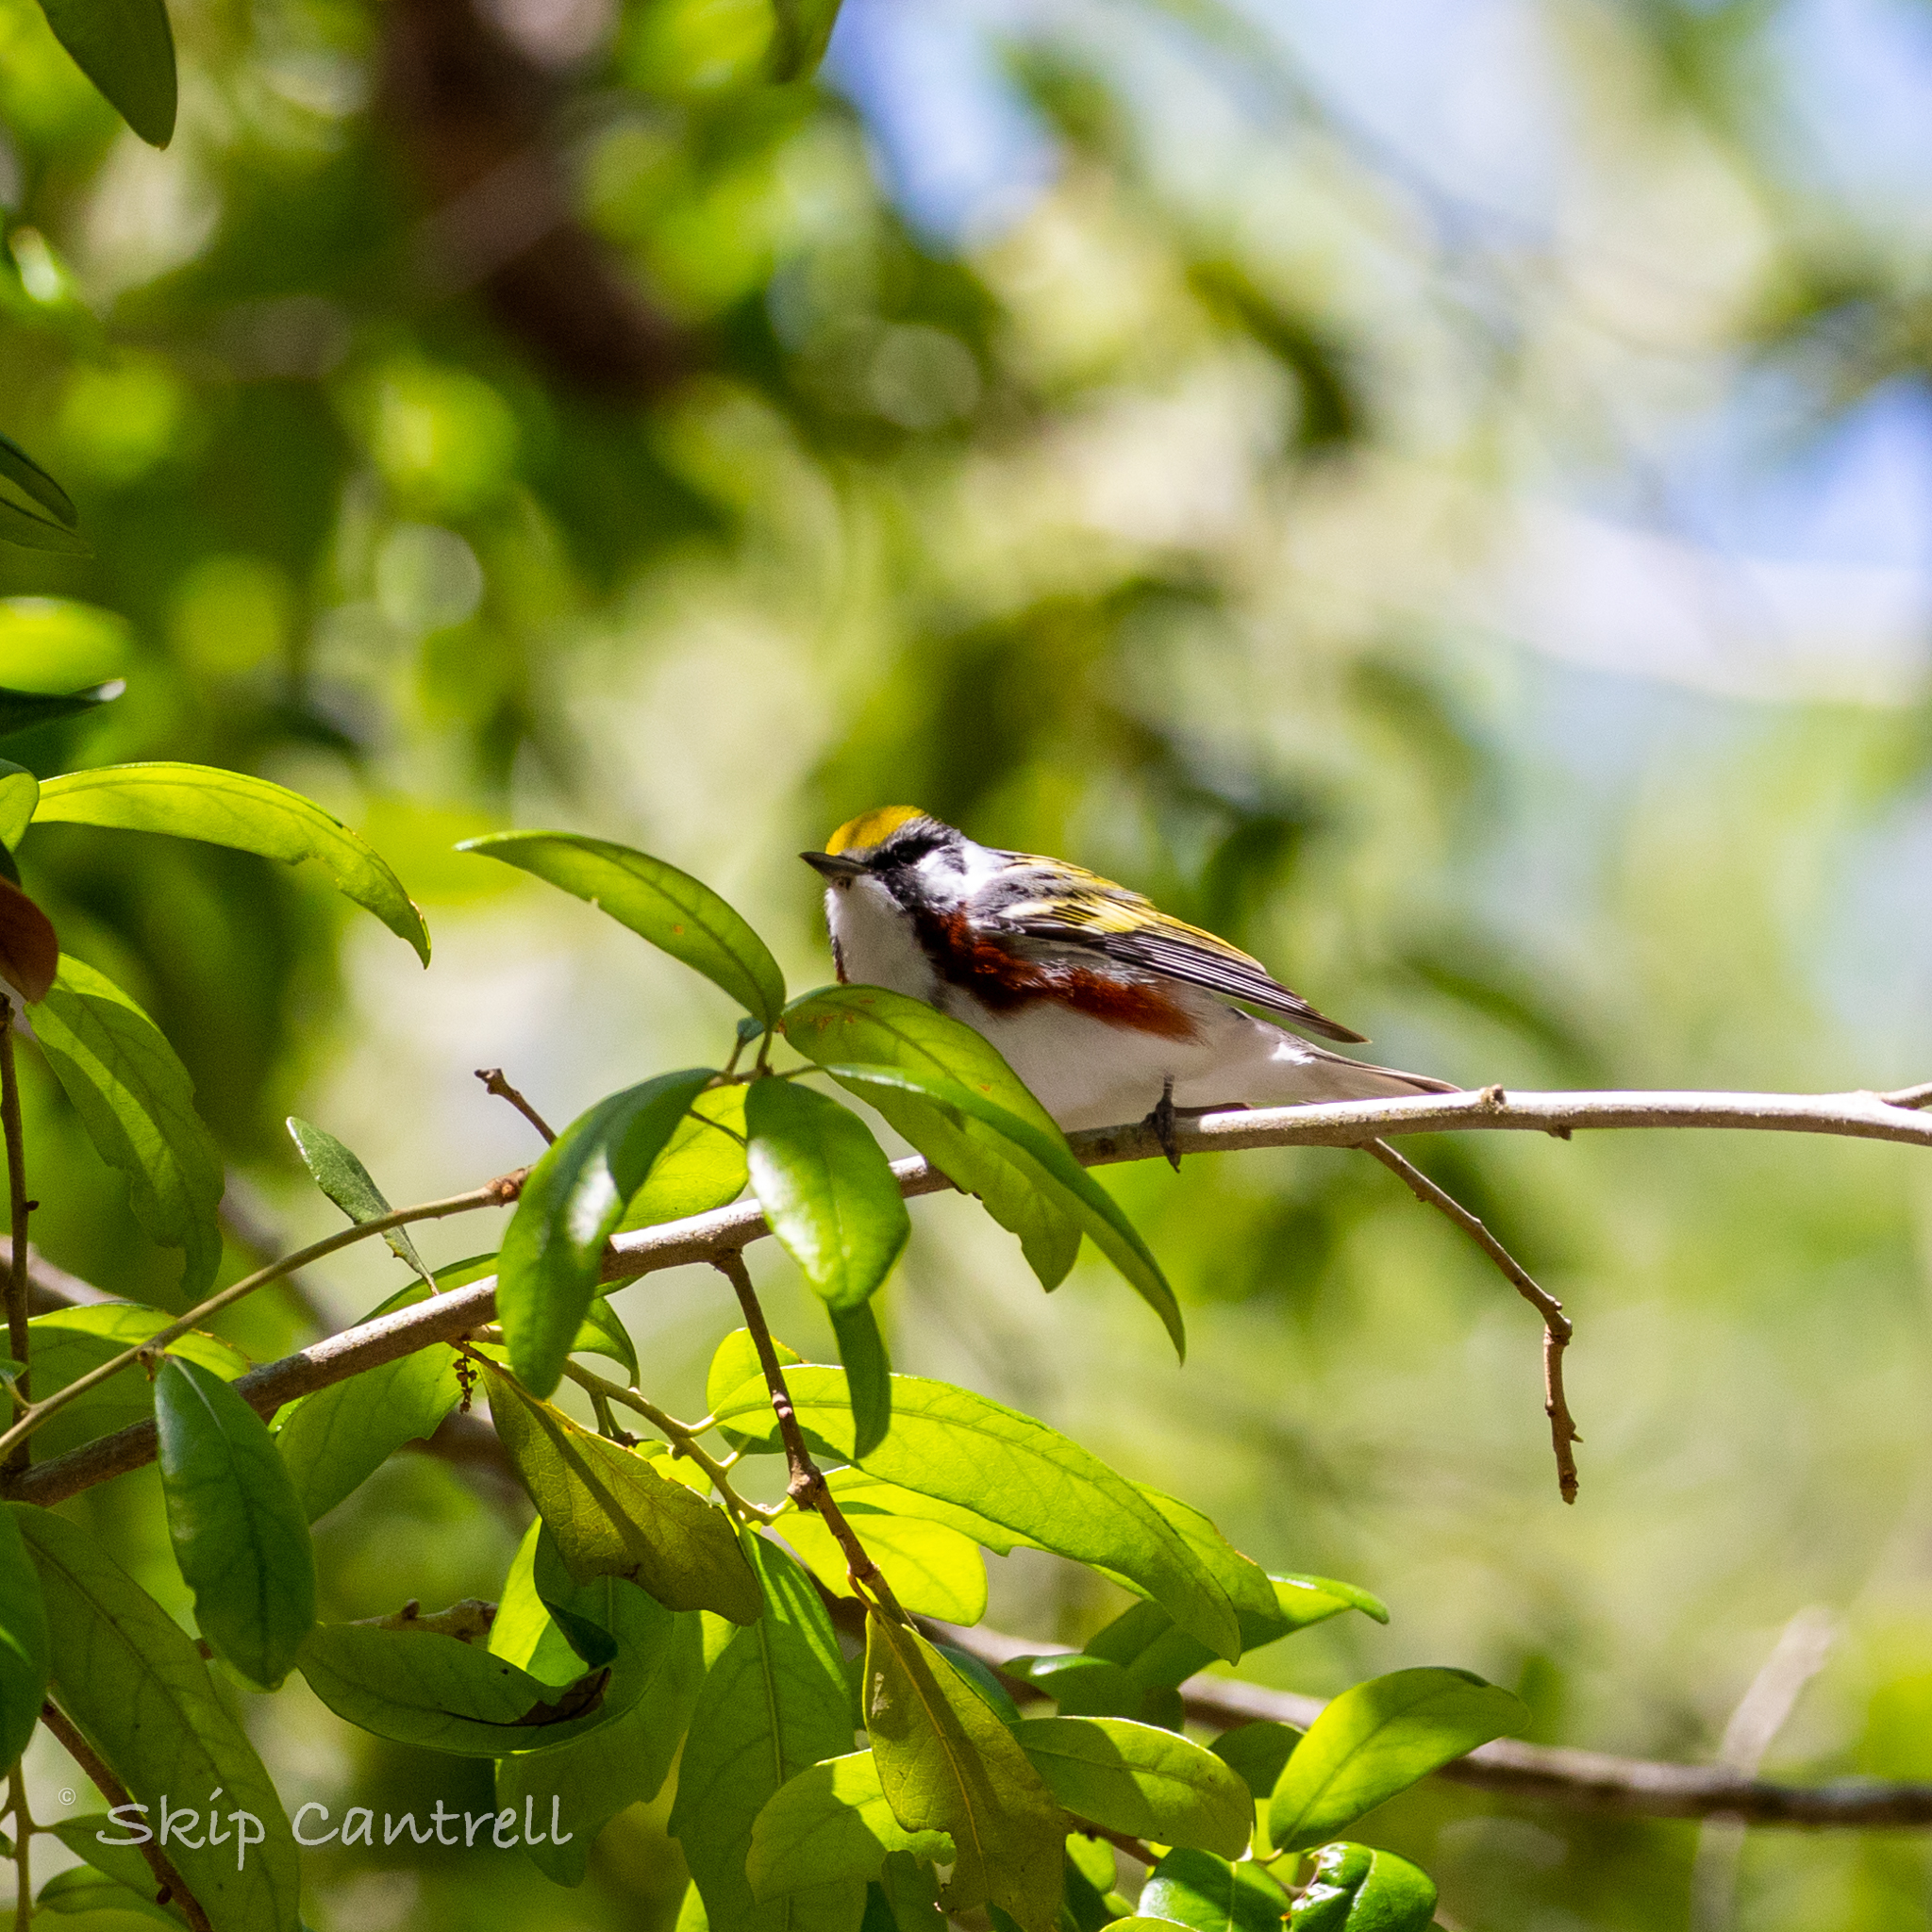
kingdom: Animalia
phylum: Chordata
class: Aves
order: Passeriformes
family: Parulidae
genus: Setophaga
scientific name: Setophaga pensylvanica
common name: Chestnut-sided warbler
